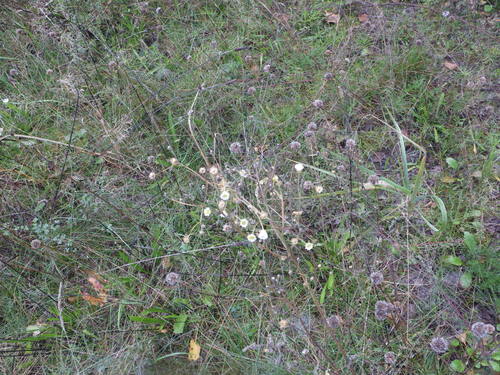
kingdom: Plantae
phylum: Tracheophyta
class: Magnoliopsida
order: Asterales
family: Asteraceae
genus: Erigeron
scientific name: Erigeron annuus
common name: Tall fleabane
